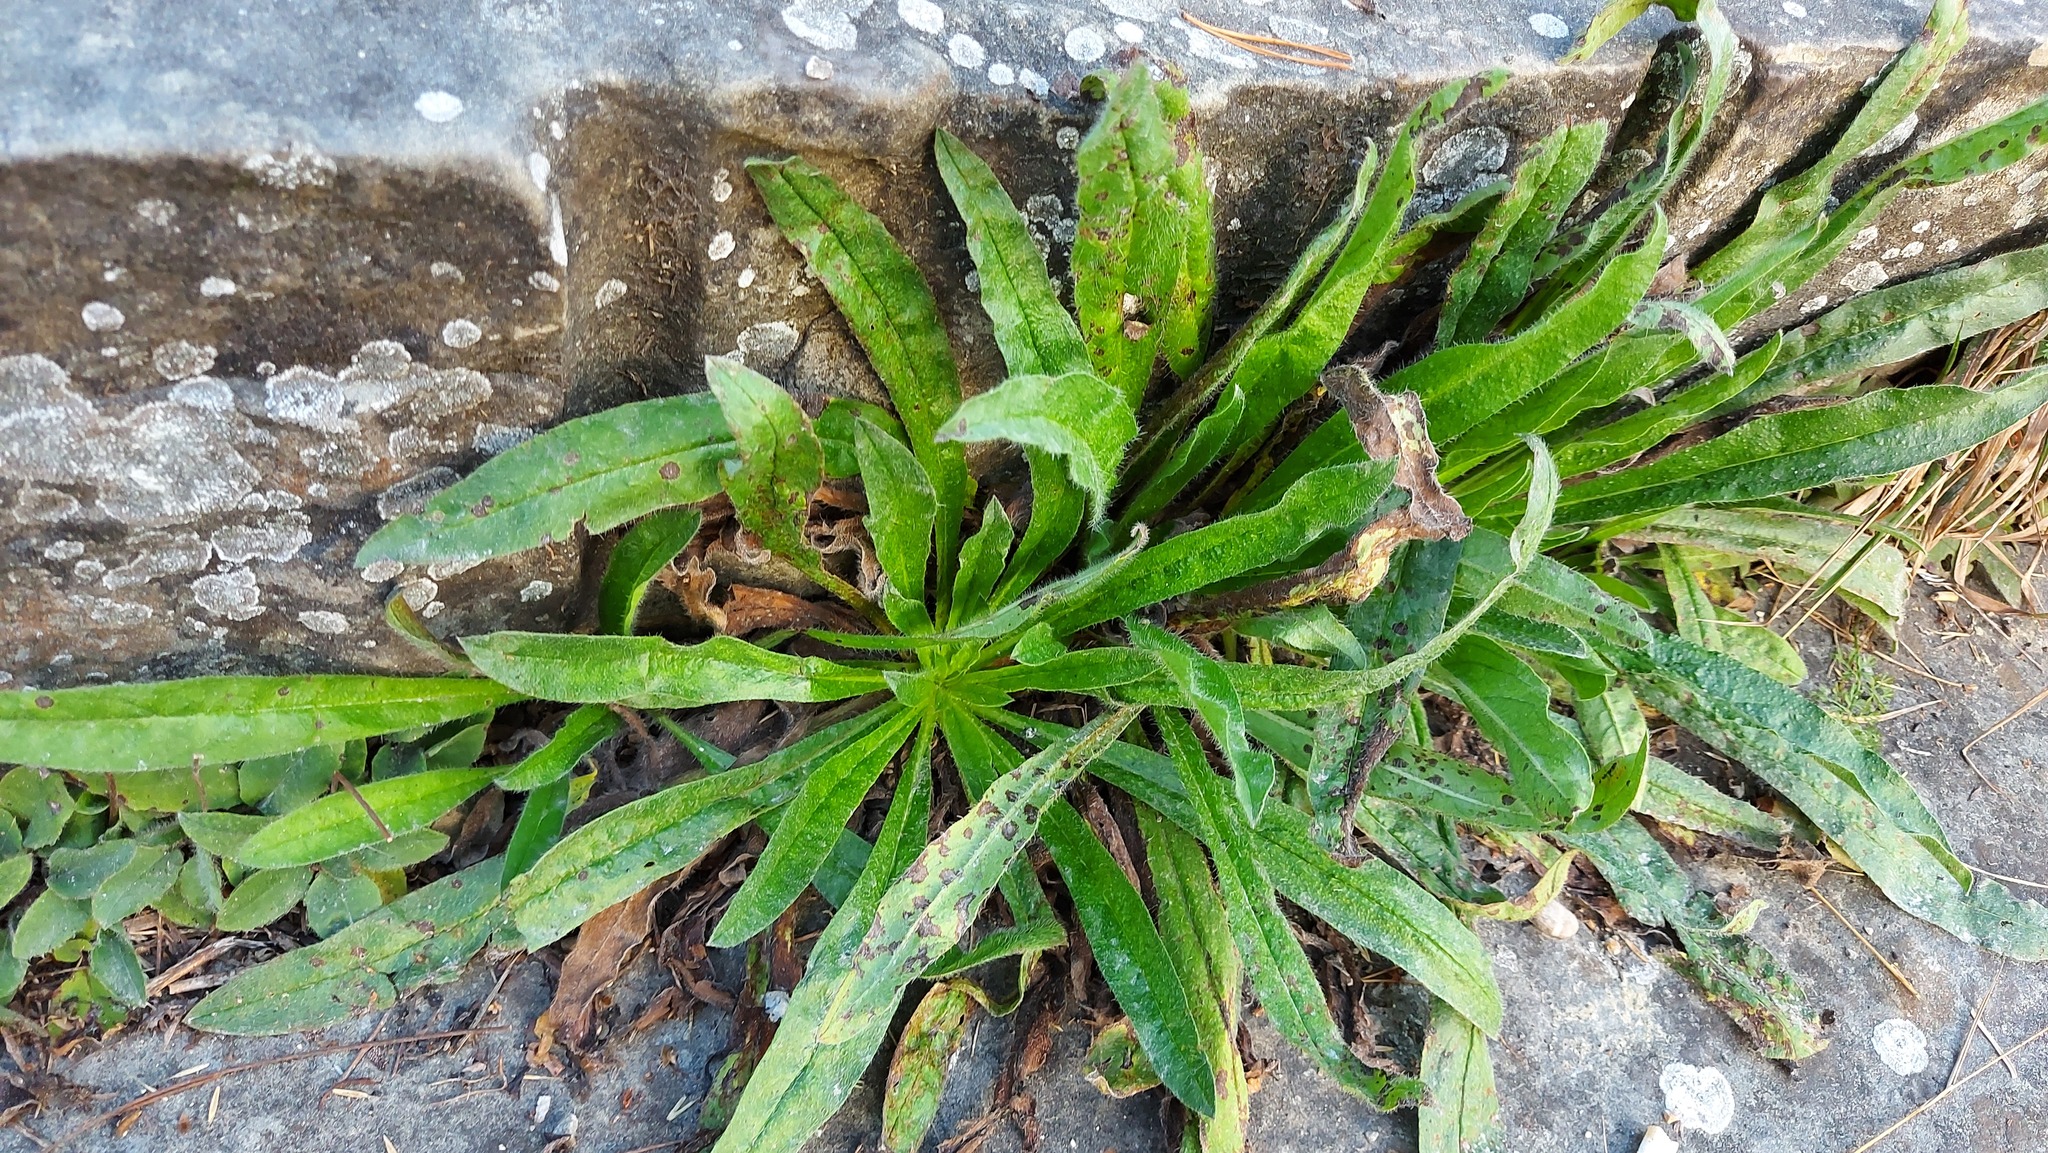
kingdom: Plantae
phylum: Tracheophyta
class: Magnoliopsida
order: Boraginales
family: Boraginaceae
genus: Echium
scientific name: Echium vulgare
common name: Common viper's bugloss
